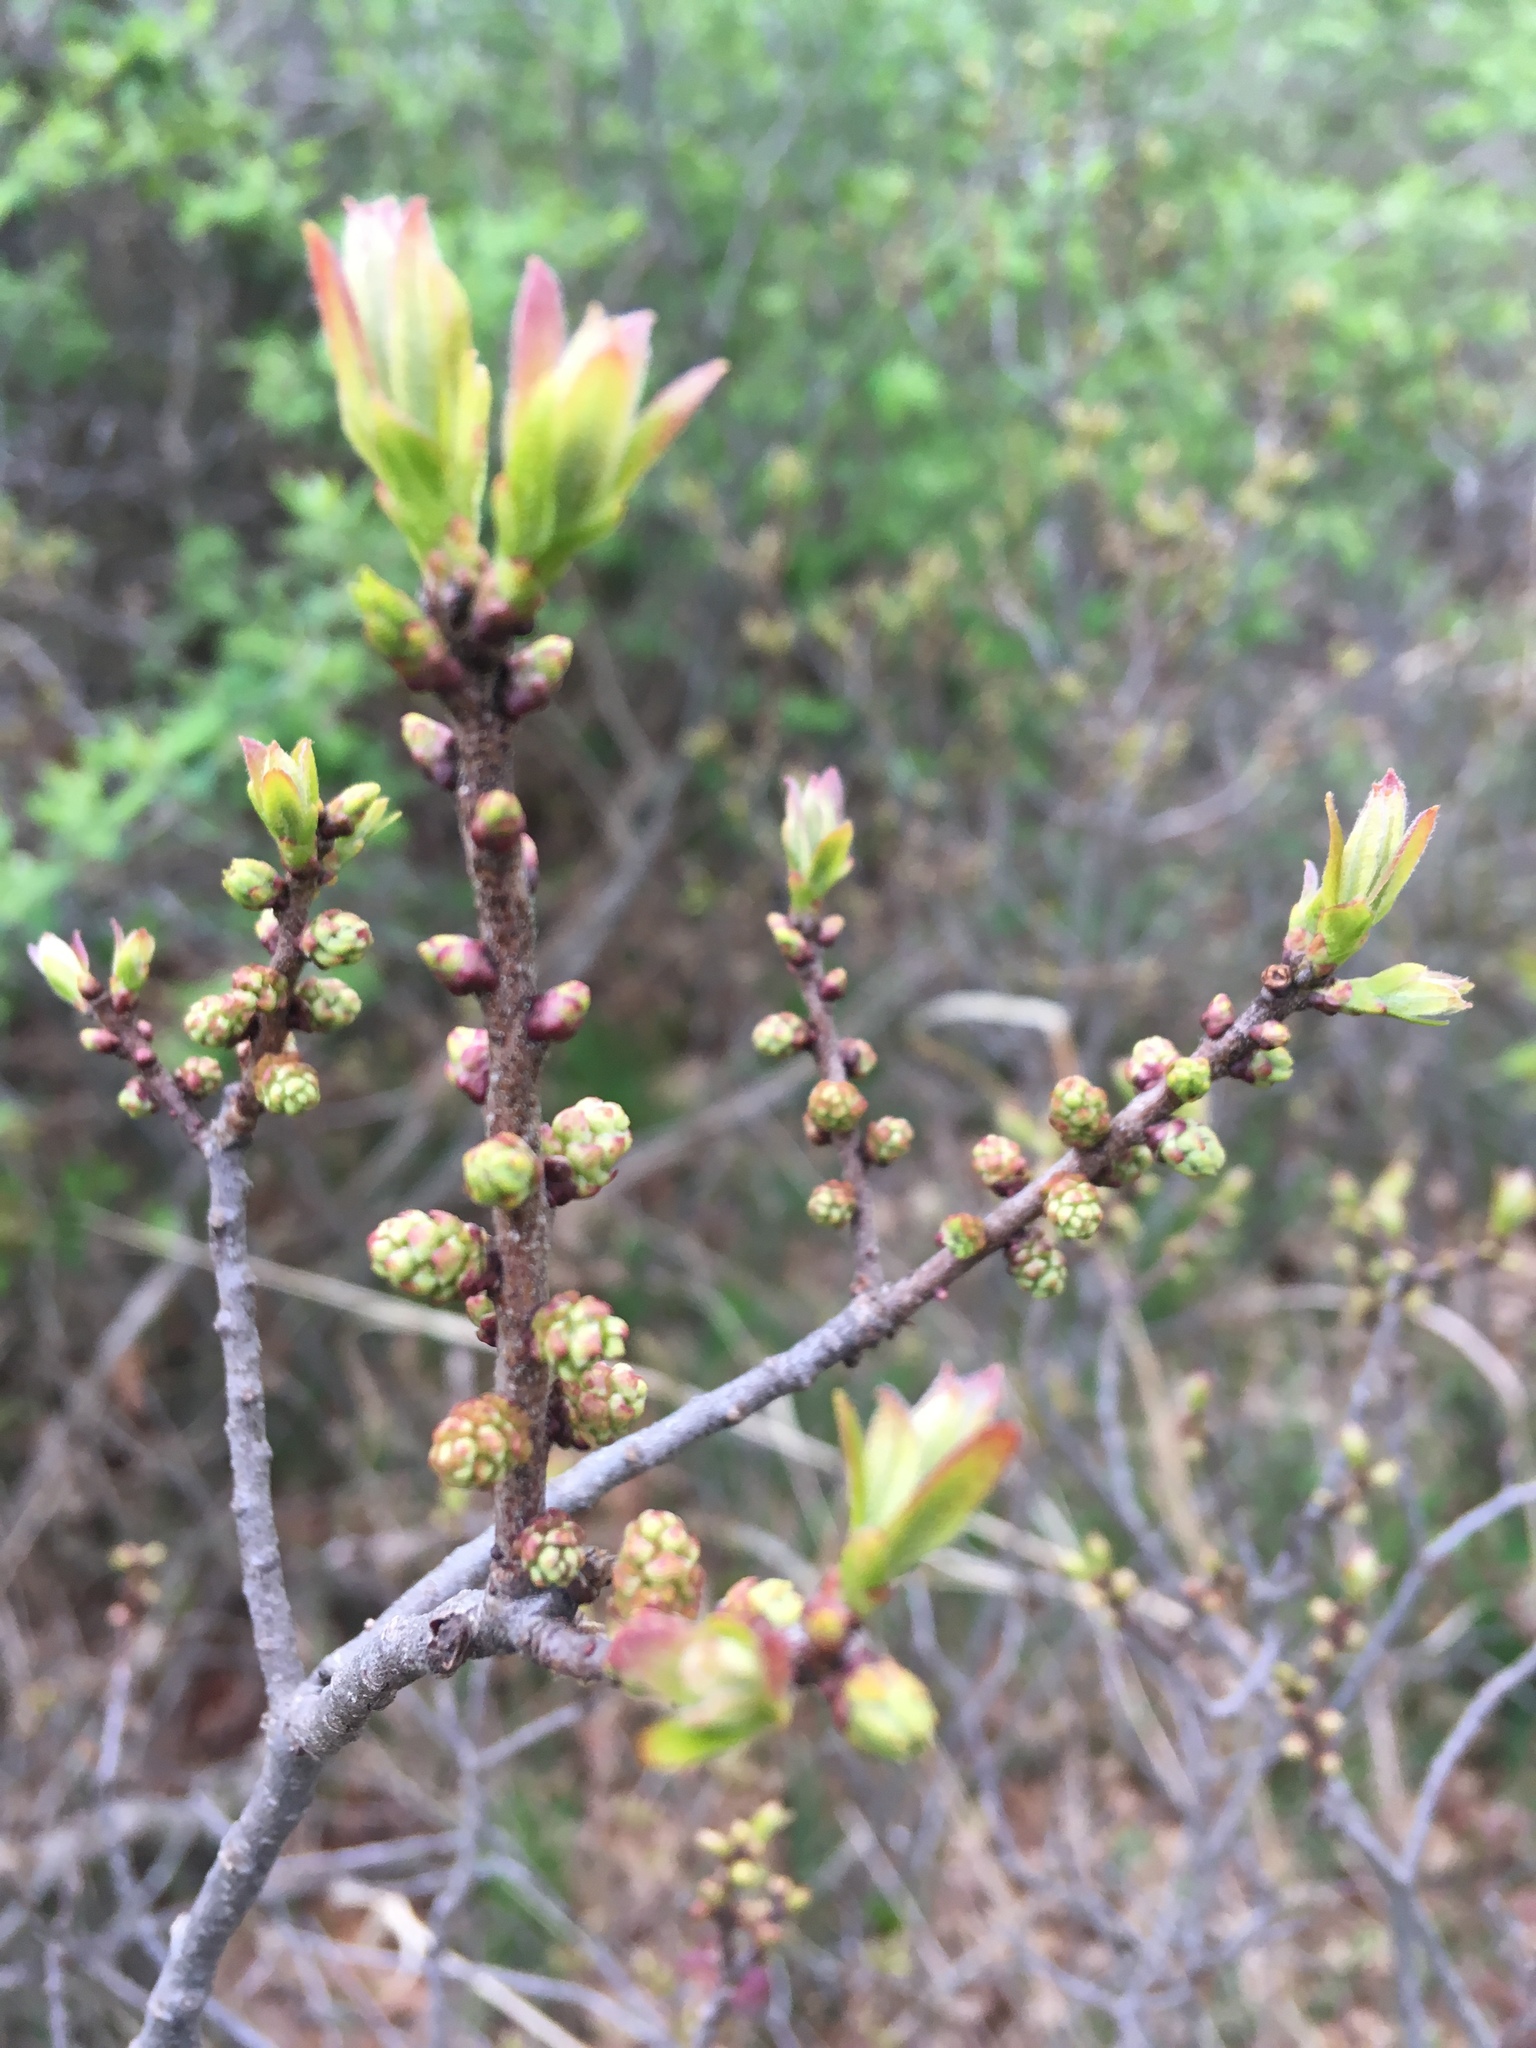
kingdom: Plantae
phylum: Tracheophyta
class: Magnoliopsida
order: Fagales
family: Myricaceae
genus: Morella
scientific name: Morella pensylvanica
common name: Northern bayberry
